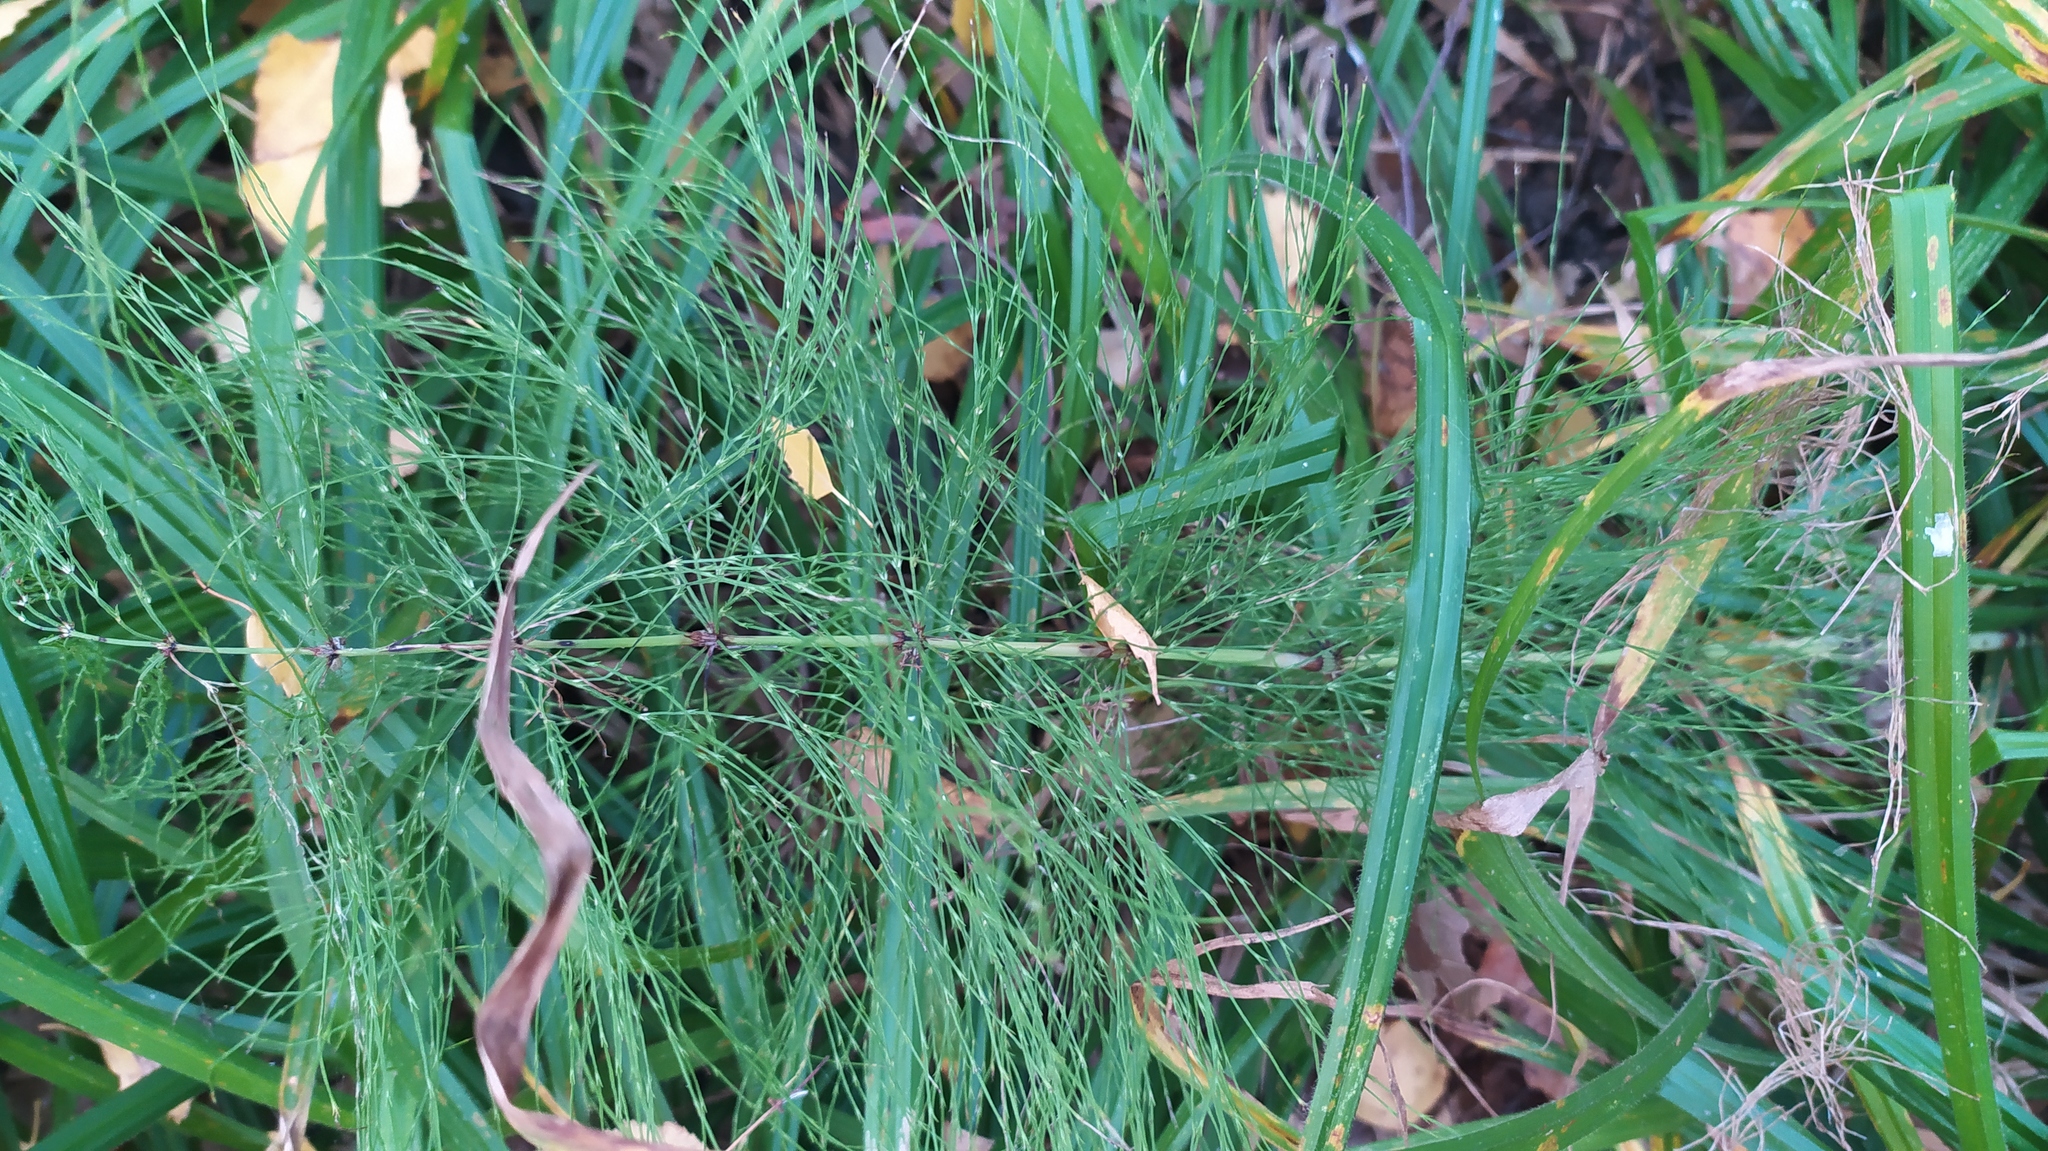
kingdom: Plantae
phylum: Tracheophyta
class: Polypodiopsida
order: Equisetales
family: Equisetaceae
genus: Equisetum
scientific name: Equisetum sylvaticum
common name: Wood horsetail
